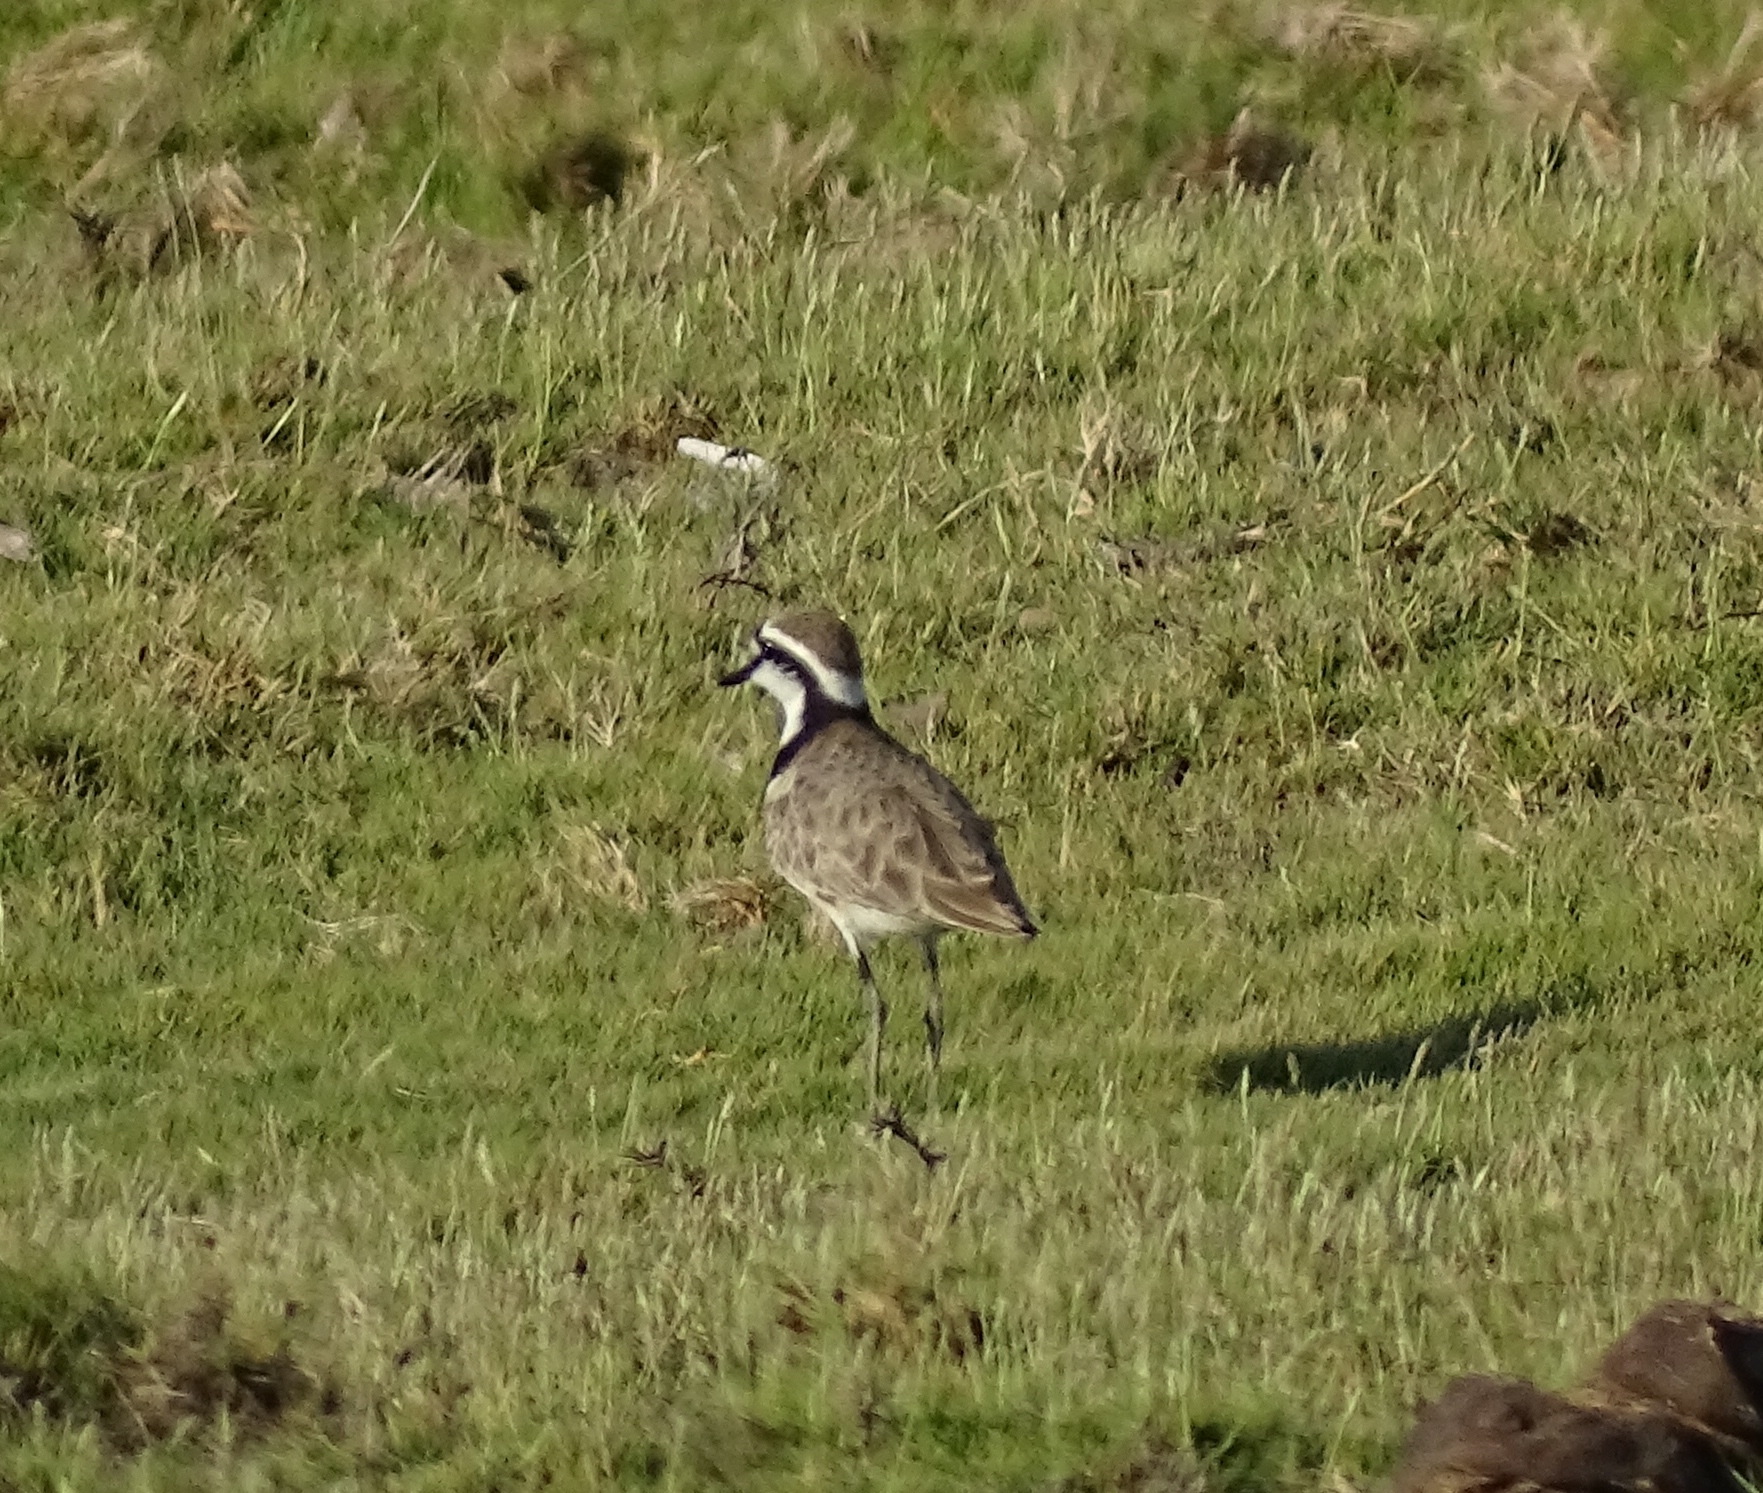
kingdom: Animalia
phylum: Chordata
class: Aves
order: Charadriiformes
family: Charadriidae
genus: Anarhynchus
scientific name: Anarhynchus
